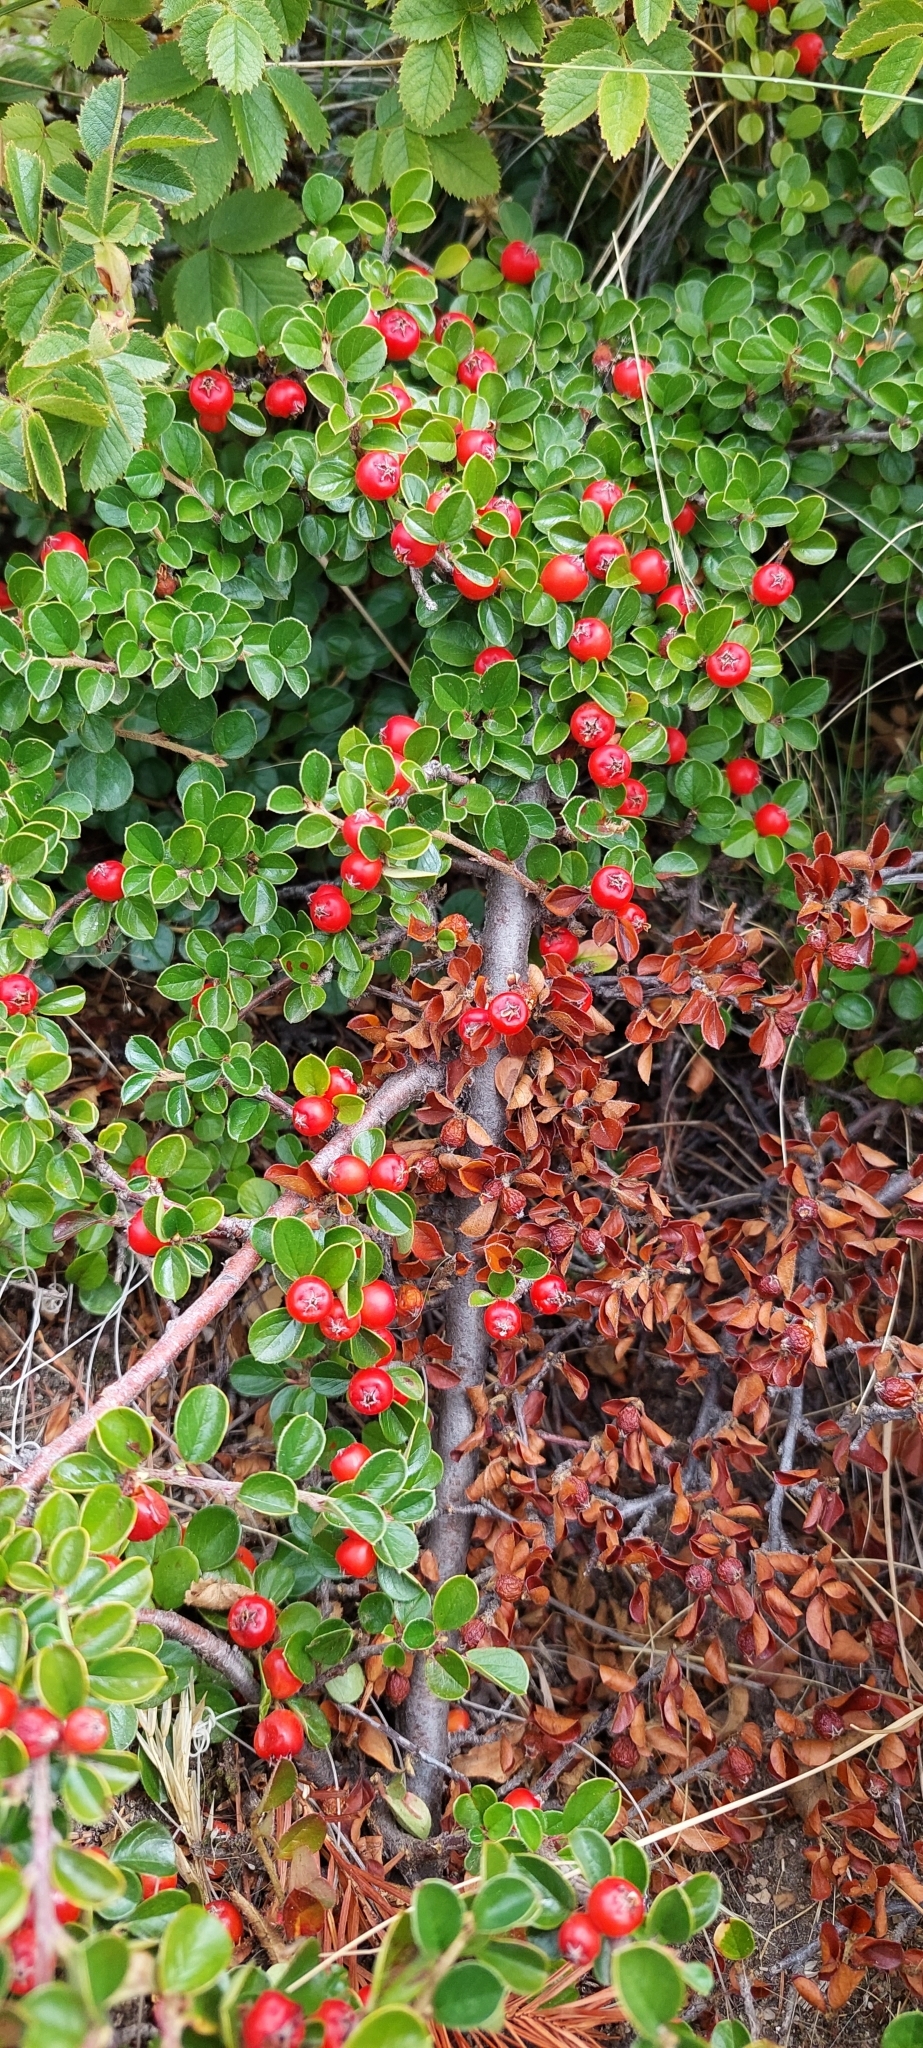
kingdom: Plantae
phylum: Tracheophyta
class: Magnoliopsida
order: Rosales
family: Rosaceae
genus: Cotoneaster
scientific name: Cotoneaster hjelmqvistii
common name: Hjelmqvist's cotoneaster
